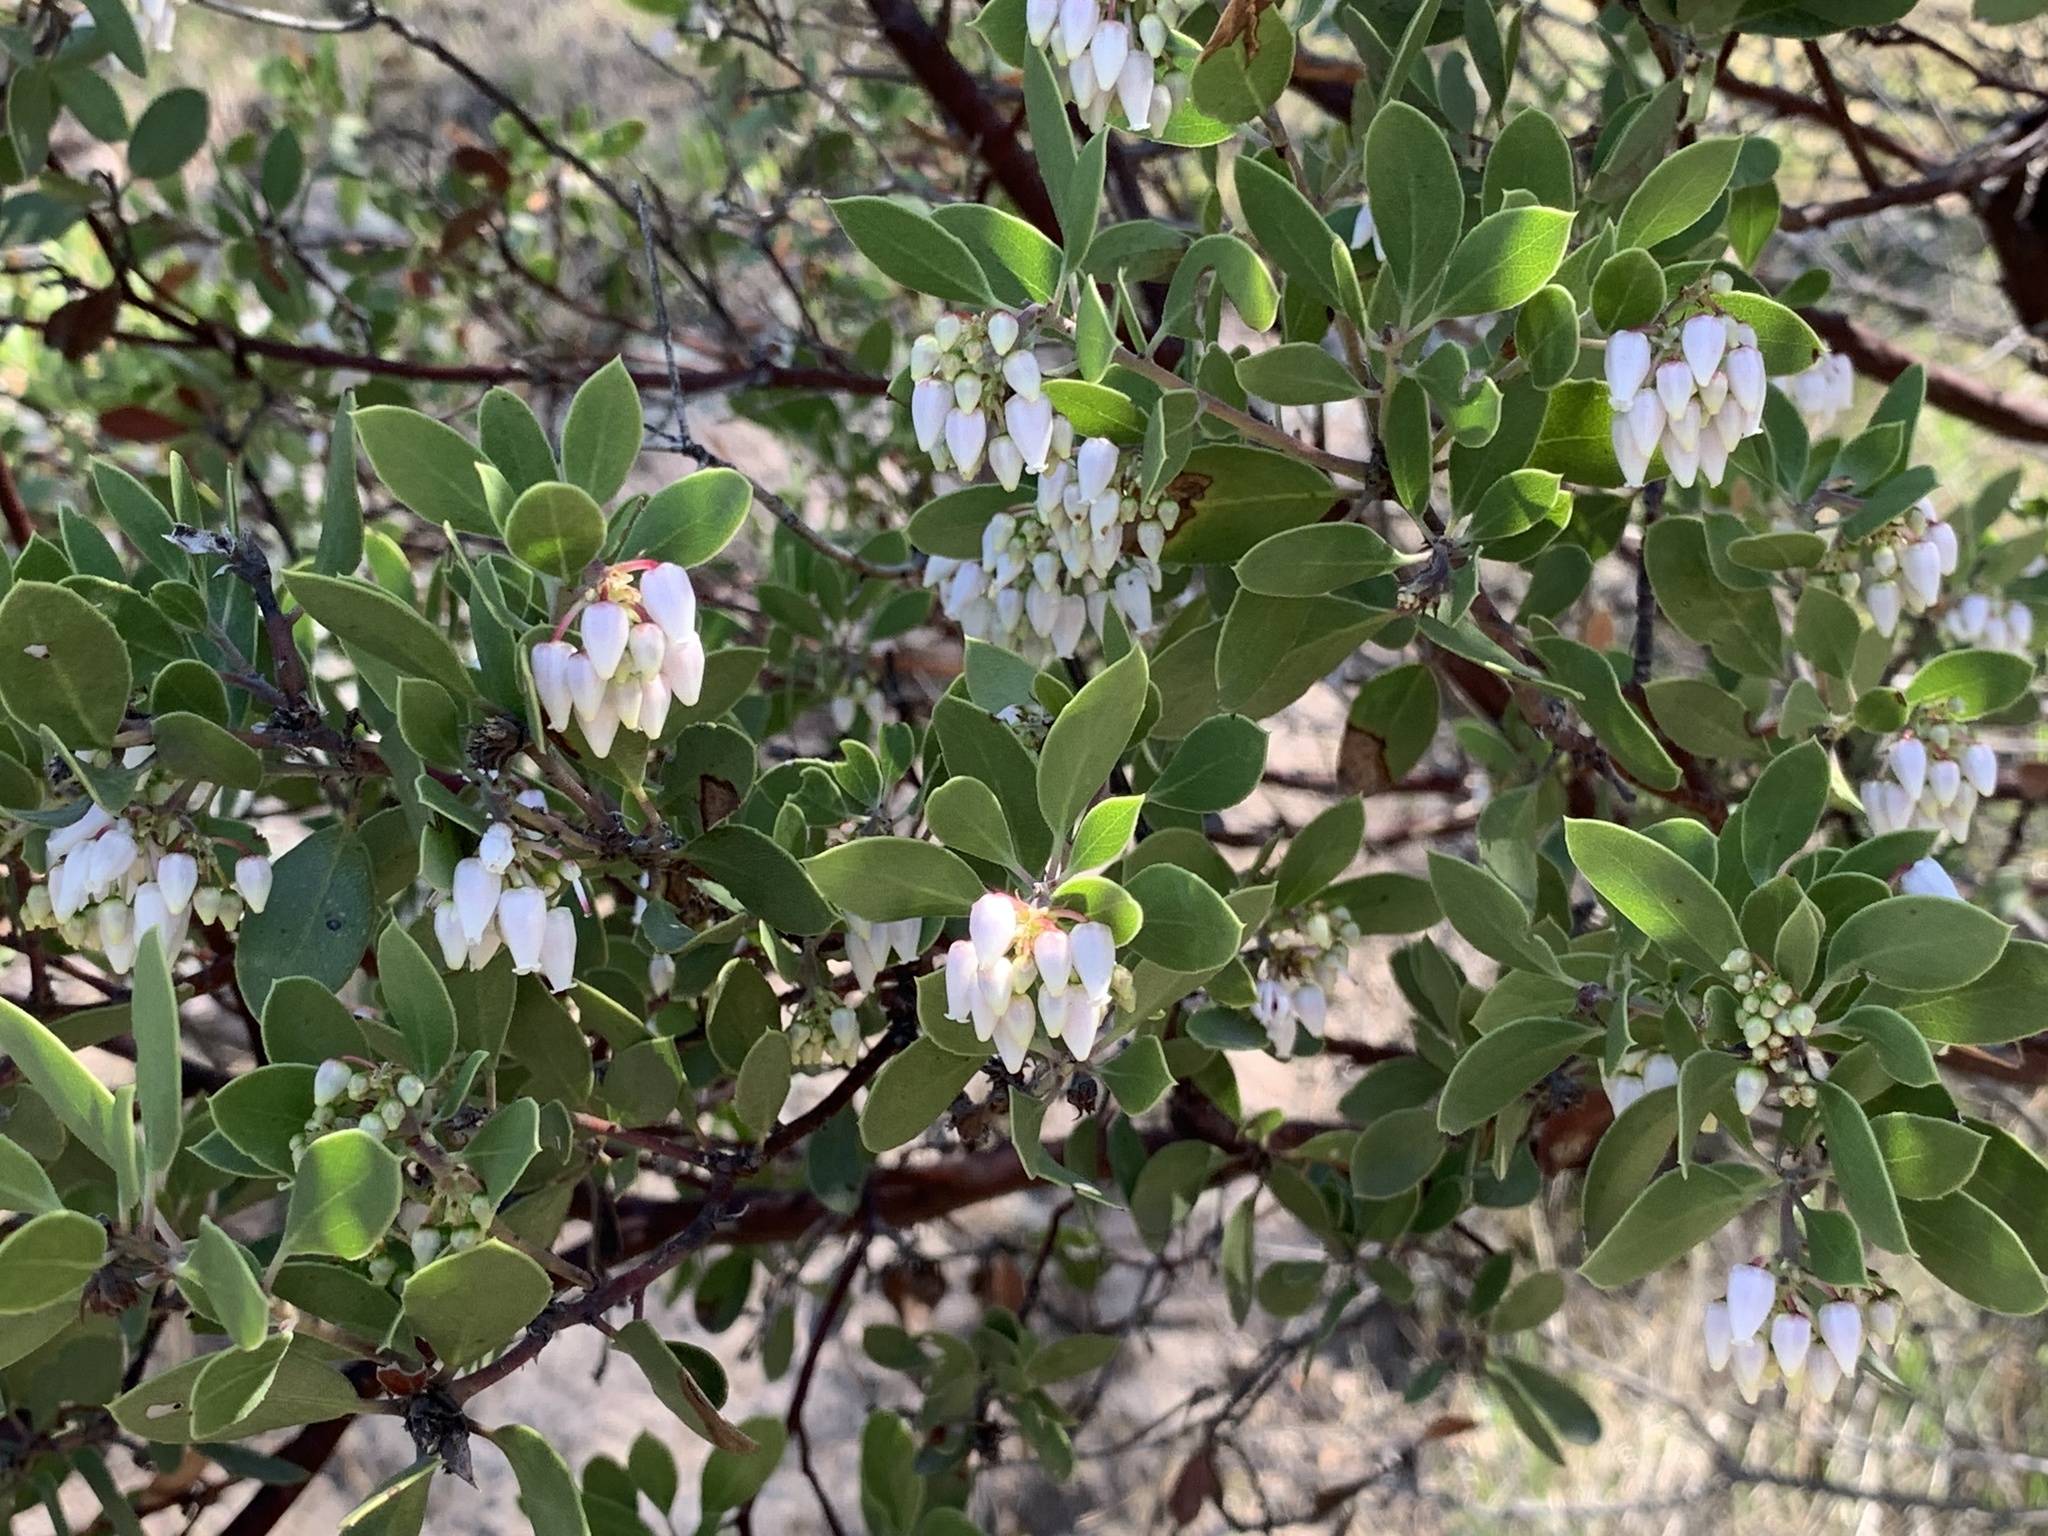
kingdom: Plantae
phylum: Tracheophyta
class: Magnoliopsida
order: Ericales
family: Ericaceae
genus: Arctostaphylos
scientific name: Arctostaphylos pungens
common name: Mexican manzanita
